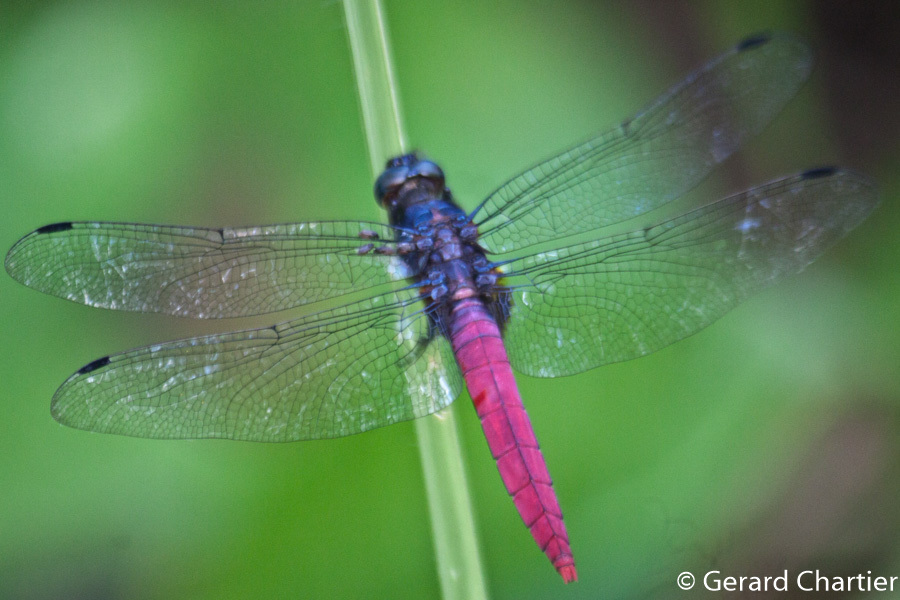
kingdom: Animalia
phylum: Arthropoda
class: Insecta
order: Odonata
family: Libellulidae
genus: Orthetrum
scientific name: Orthetrum pruinosum
